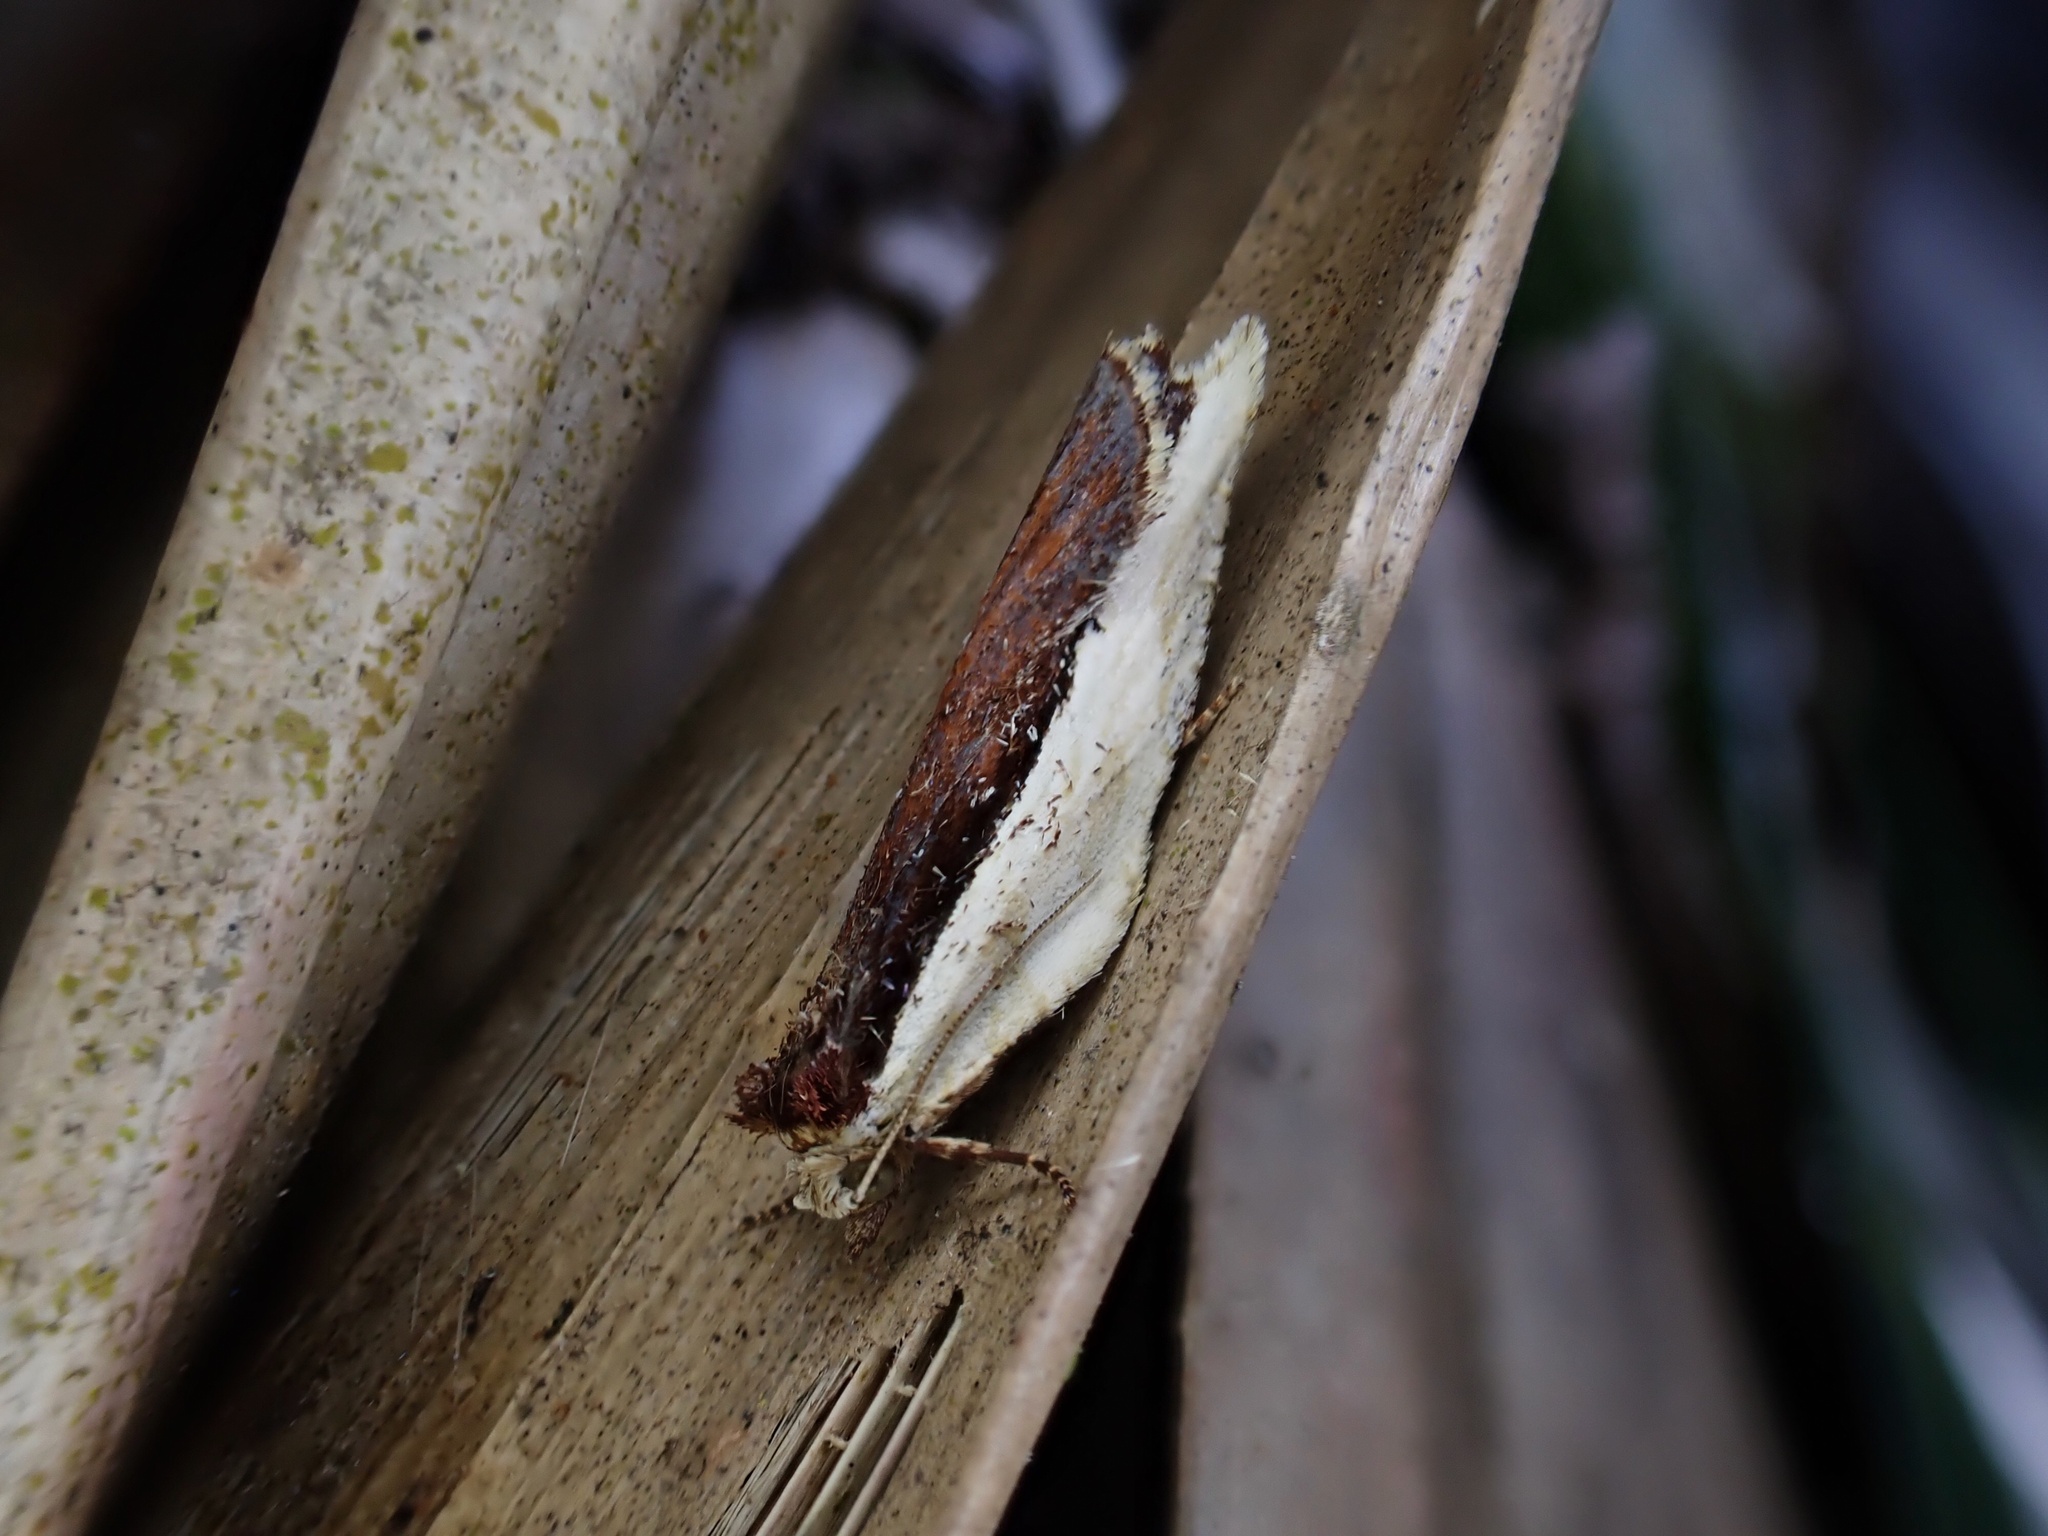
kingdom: Animalia
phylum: Arthropoda
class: Insecta
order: Lepidoptera
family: Tortricidae
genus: Epalxiphora
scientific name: Epalxiphora axenana
